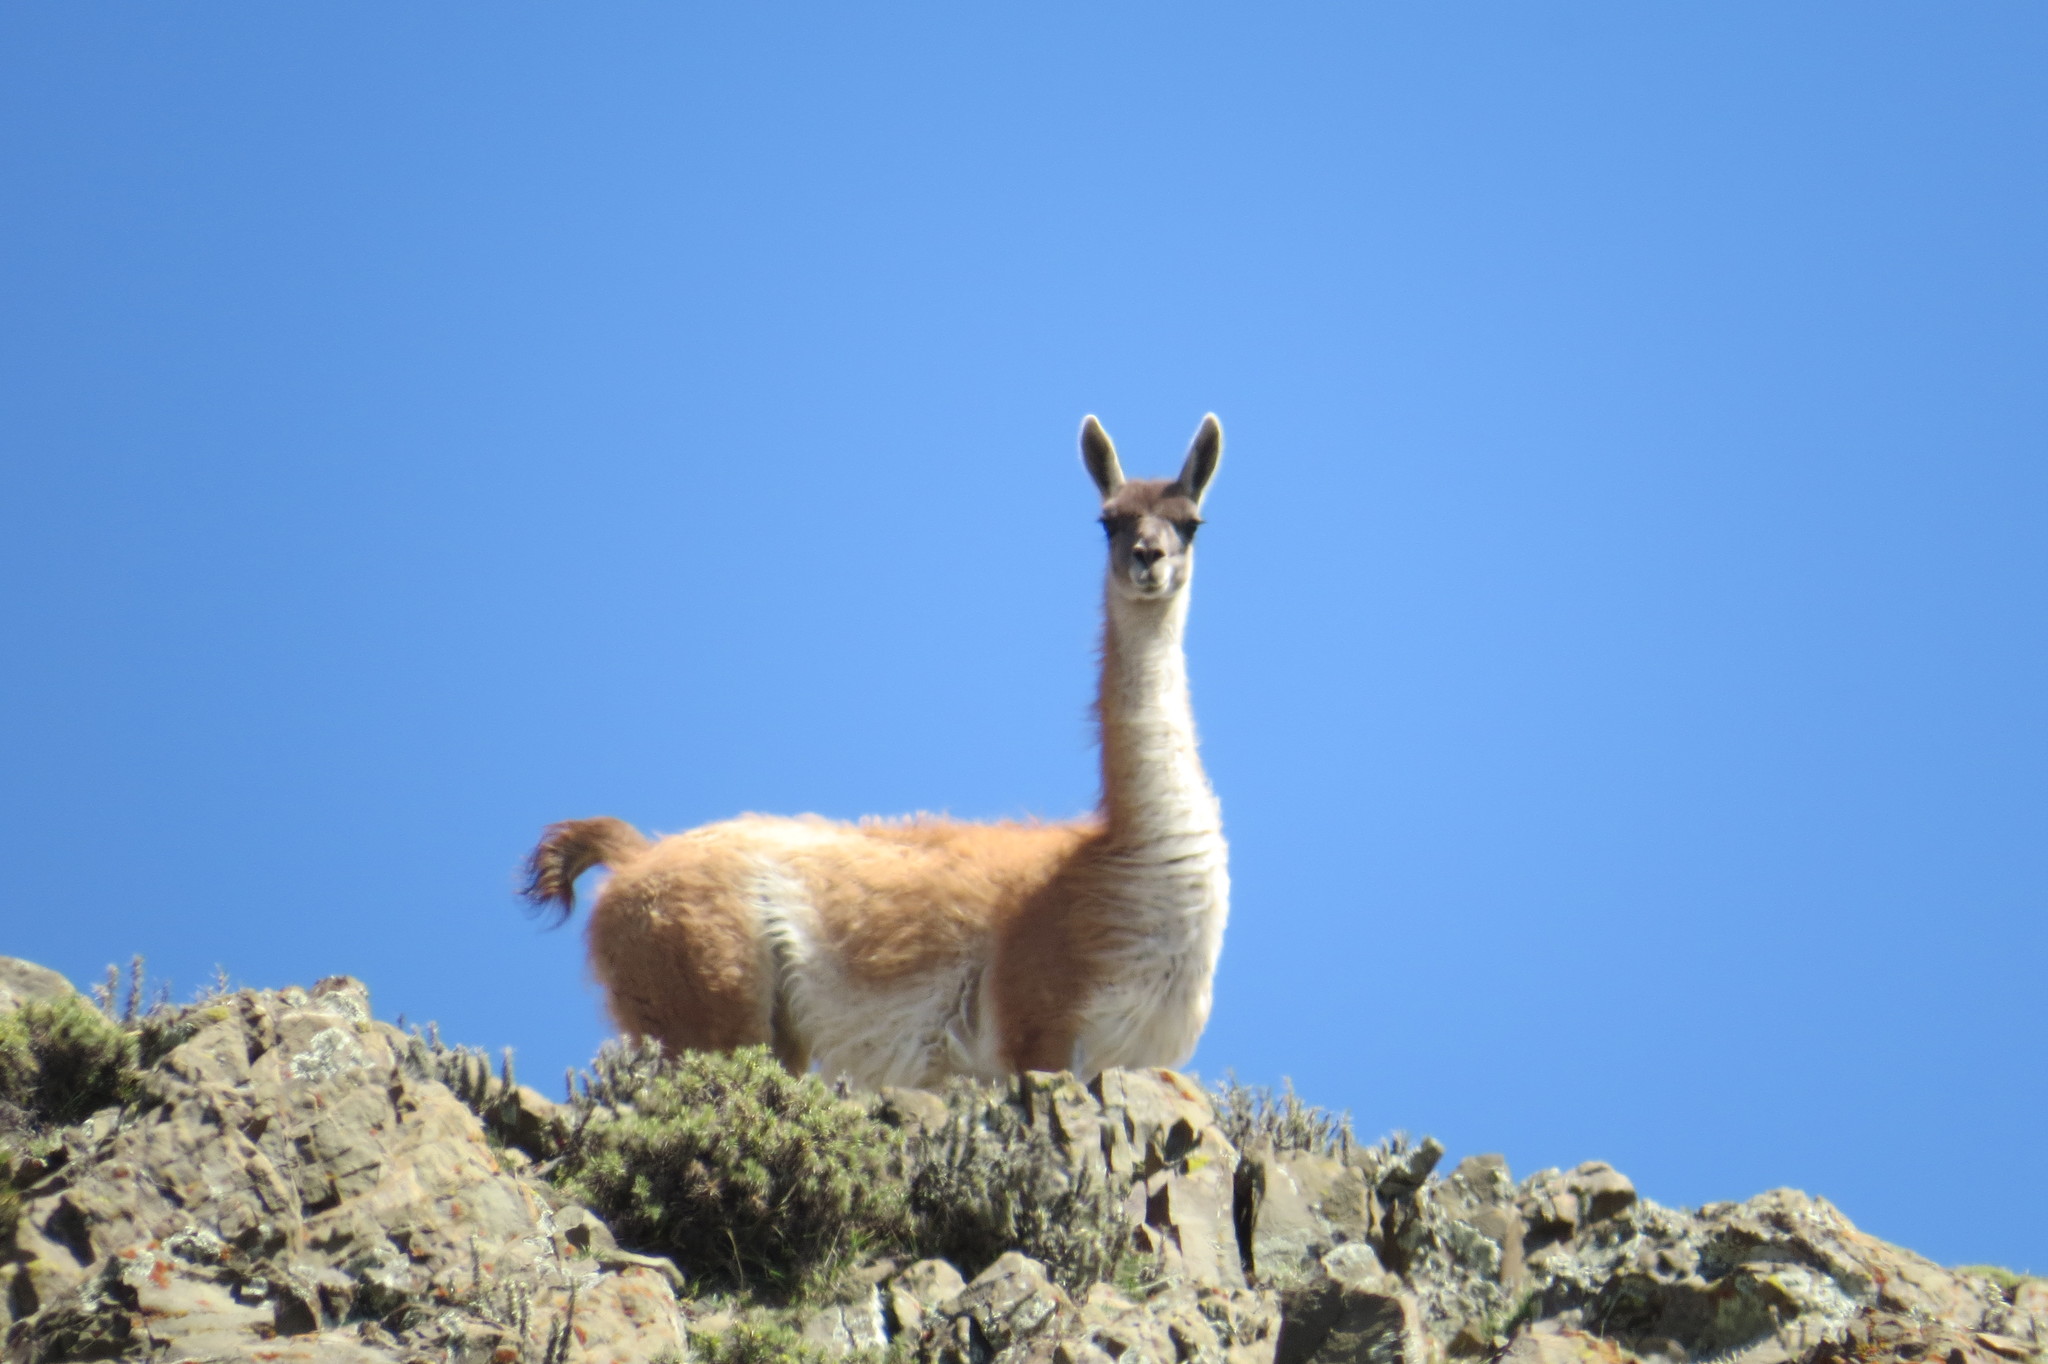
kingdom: Animalia
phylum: Chordata
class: Mammalia
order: Artiodactyla
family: Camelidae
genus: Lama
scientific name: Lama glama
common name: Llama
